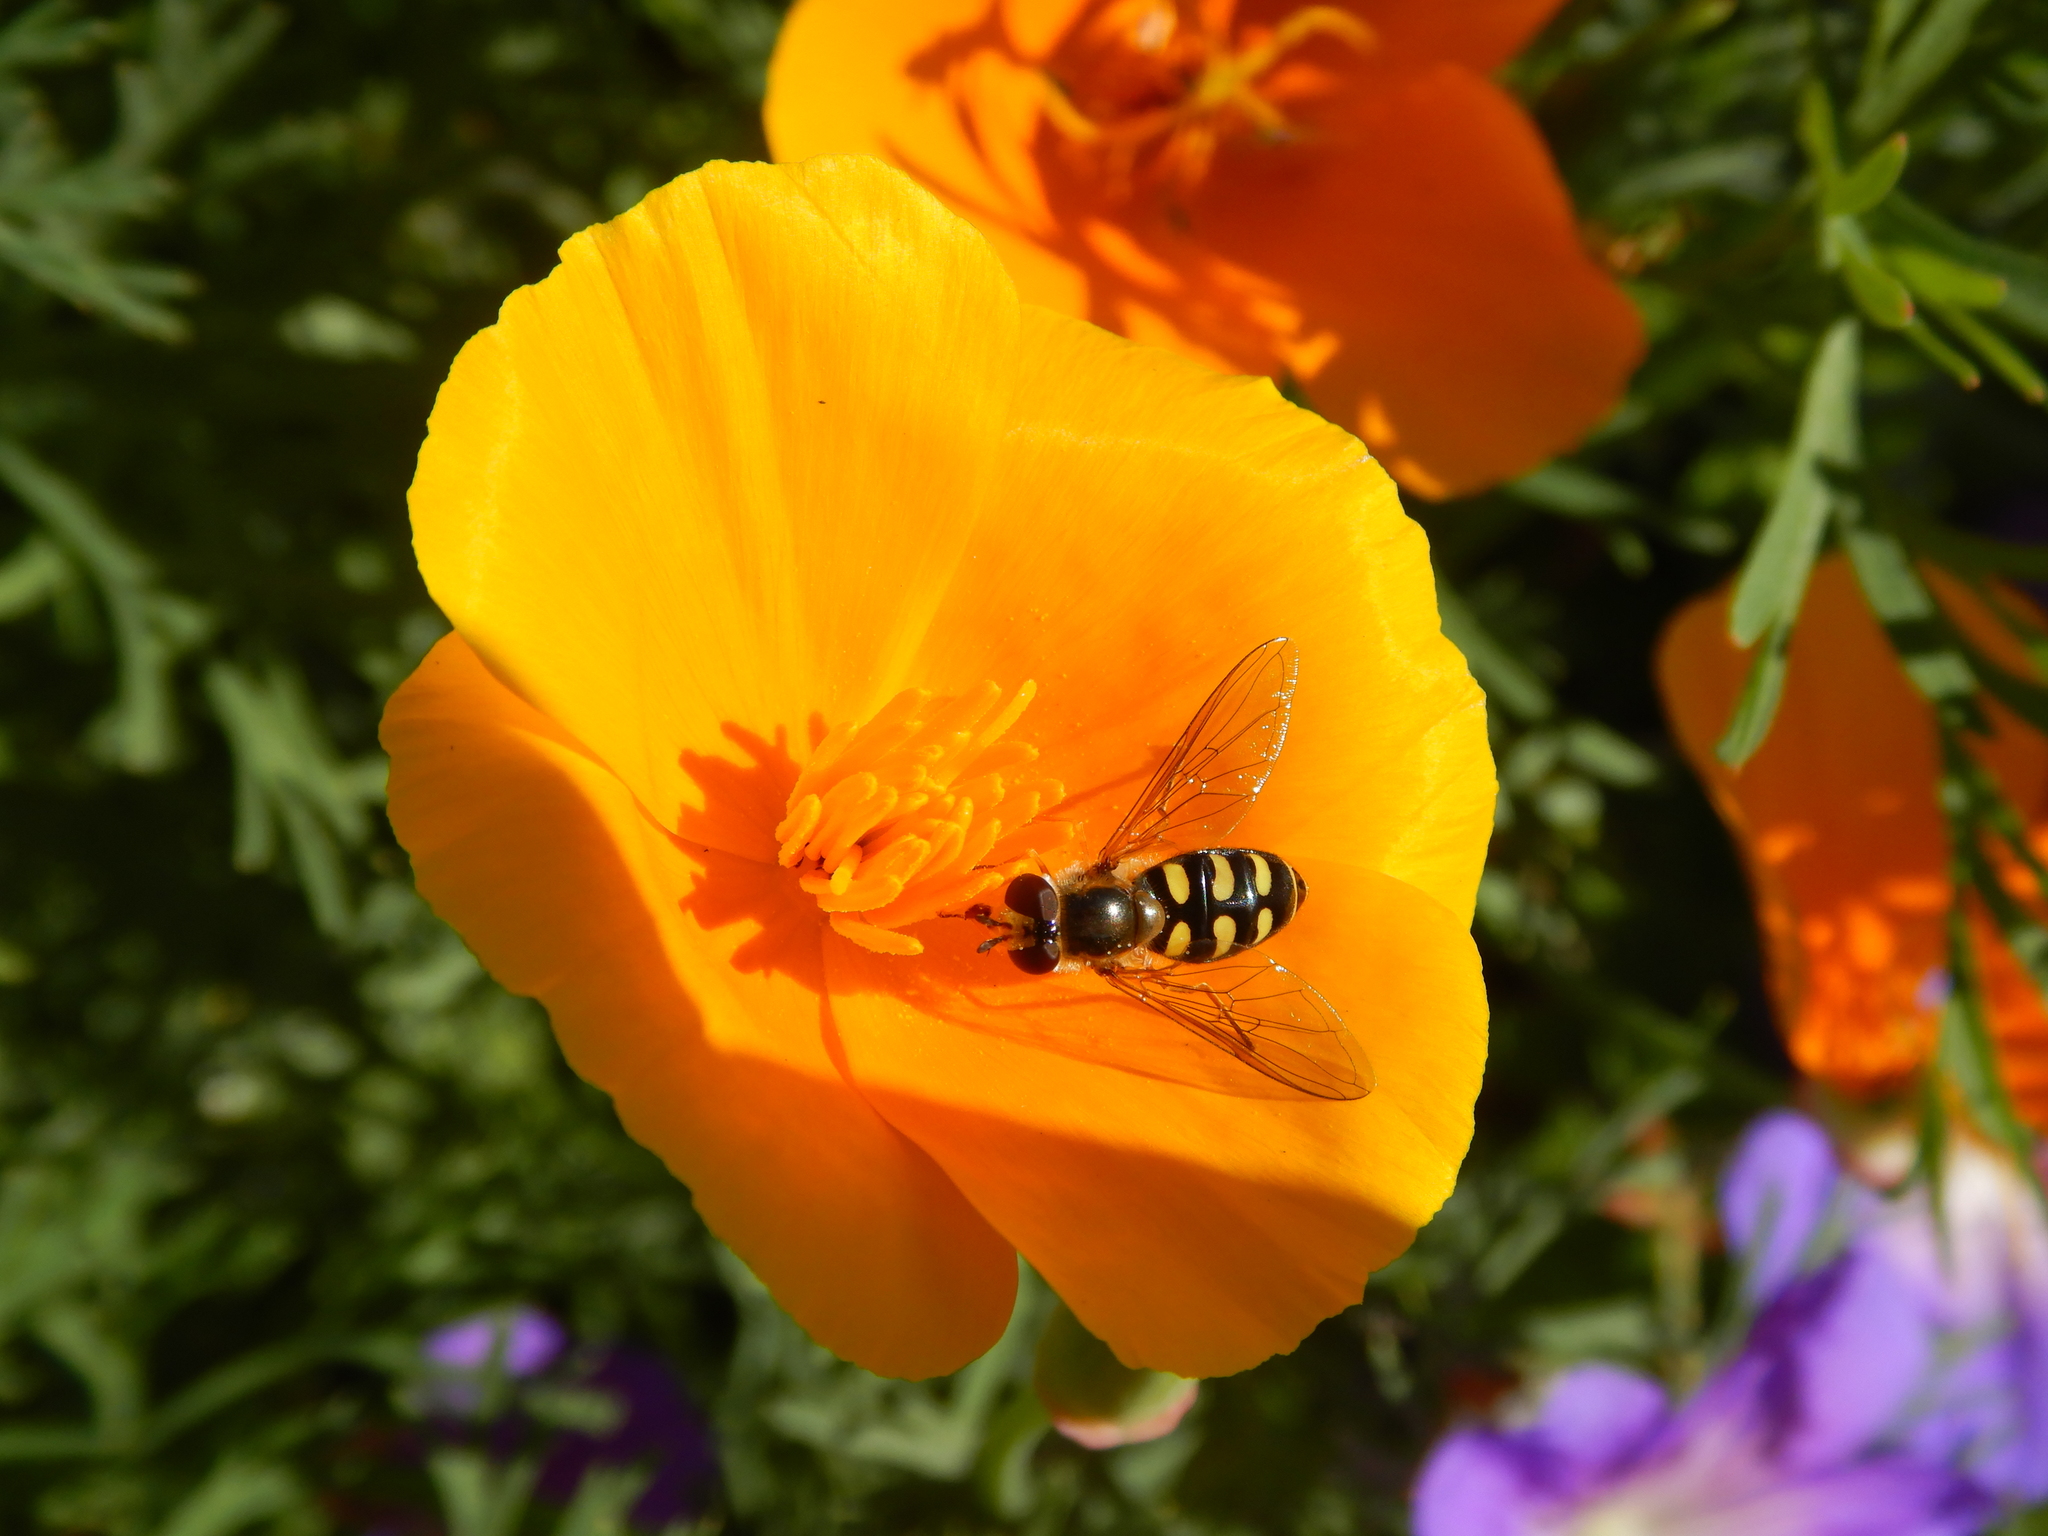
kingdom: Animalia
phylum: Arthropoda
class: Insecta
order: Diptera
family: Syrphidae
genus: Eupeodes
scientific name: Eupeodes luniger
